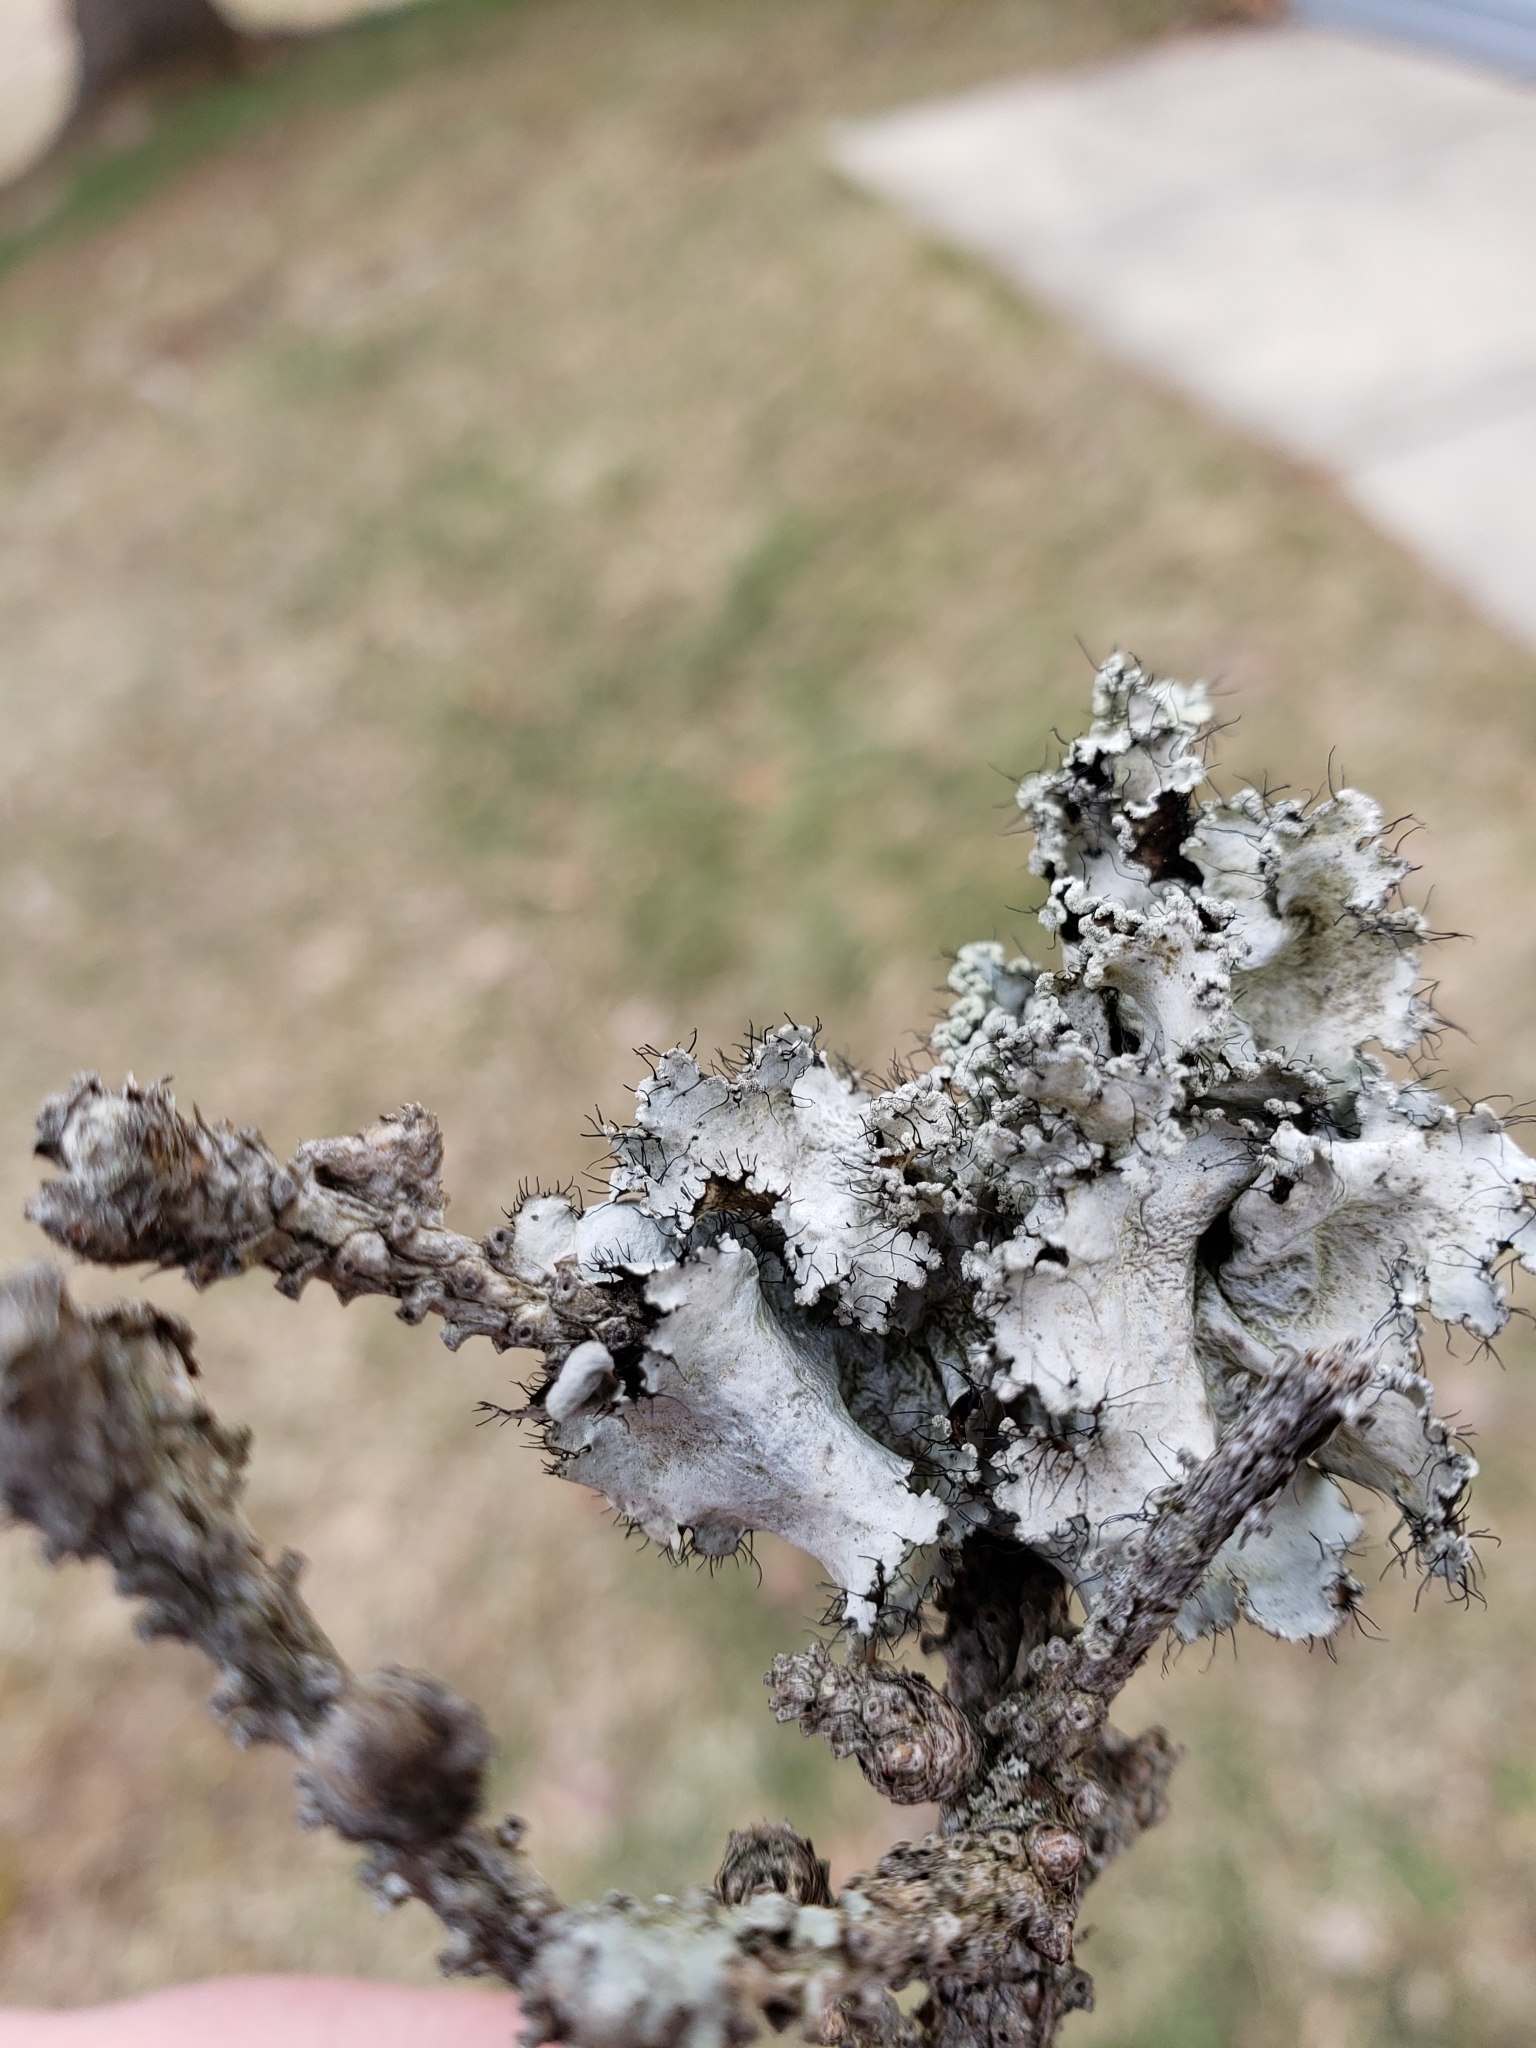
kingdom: Fungi
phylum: Ascomycota
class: Lecanoromycetes
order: Lecanorales
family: Parmeliaceae
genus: Parmotrema
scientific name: Parmotrema hypotropum
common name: Powdered ruffle lichen
